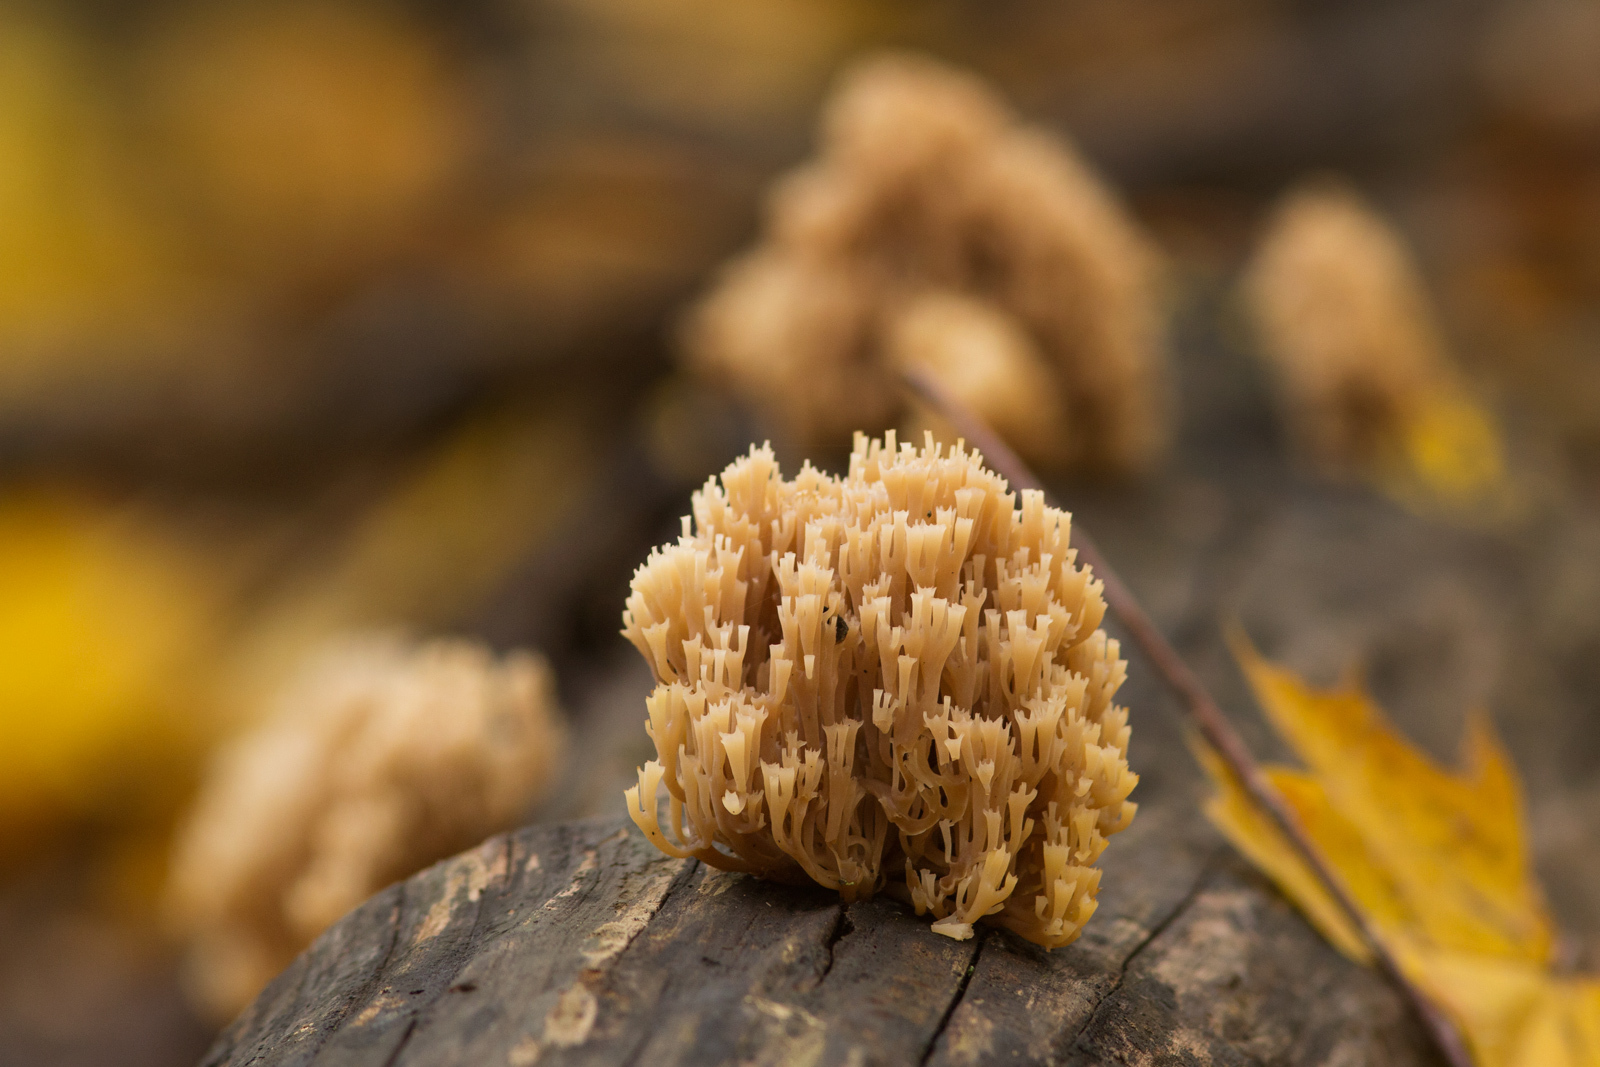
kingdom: Fungi
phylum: Basidiomycota
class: Agaricomycetes
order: Russulales
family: Auriscalpiaceae
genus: Artomyces
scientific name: Artomyces pyxidatus
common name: Crown-tipped coral fungus
